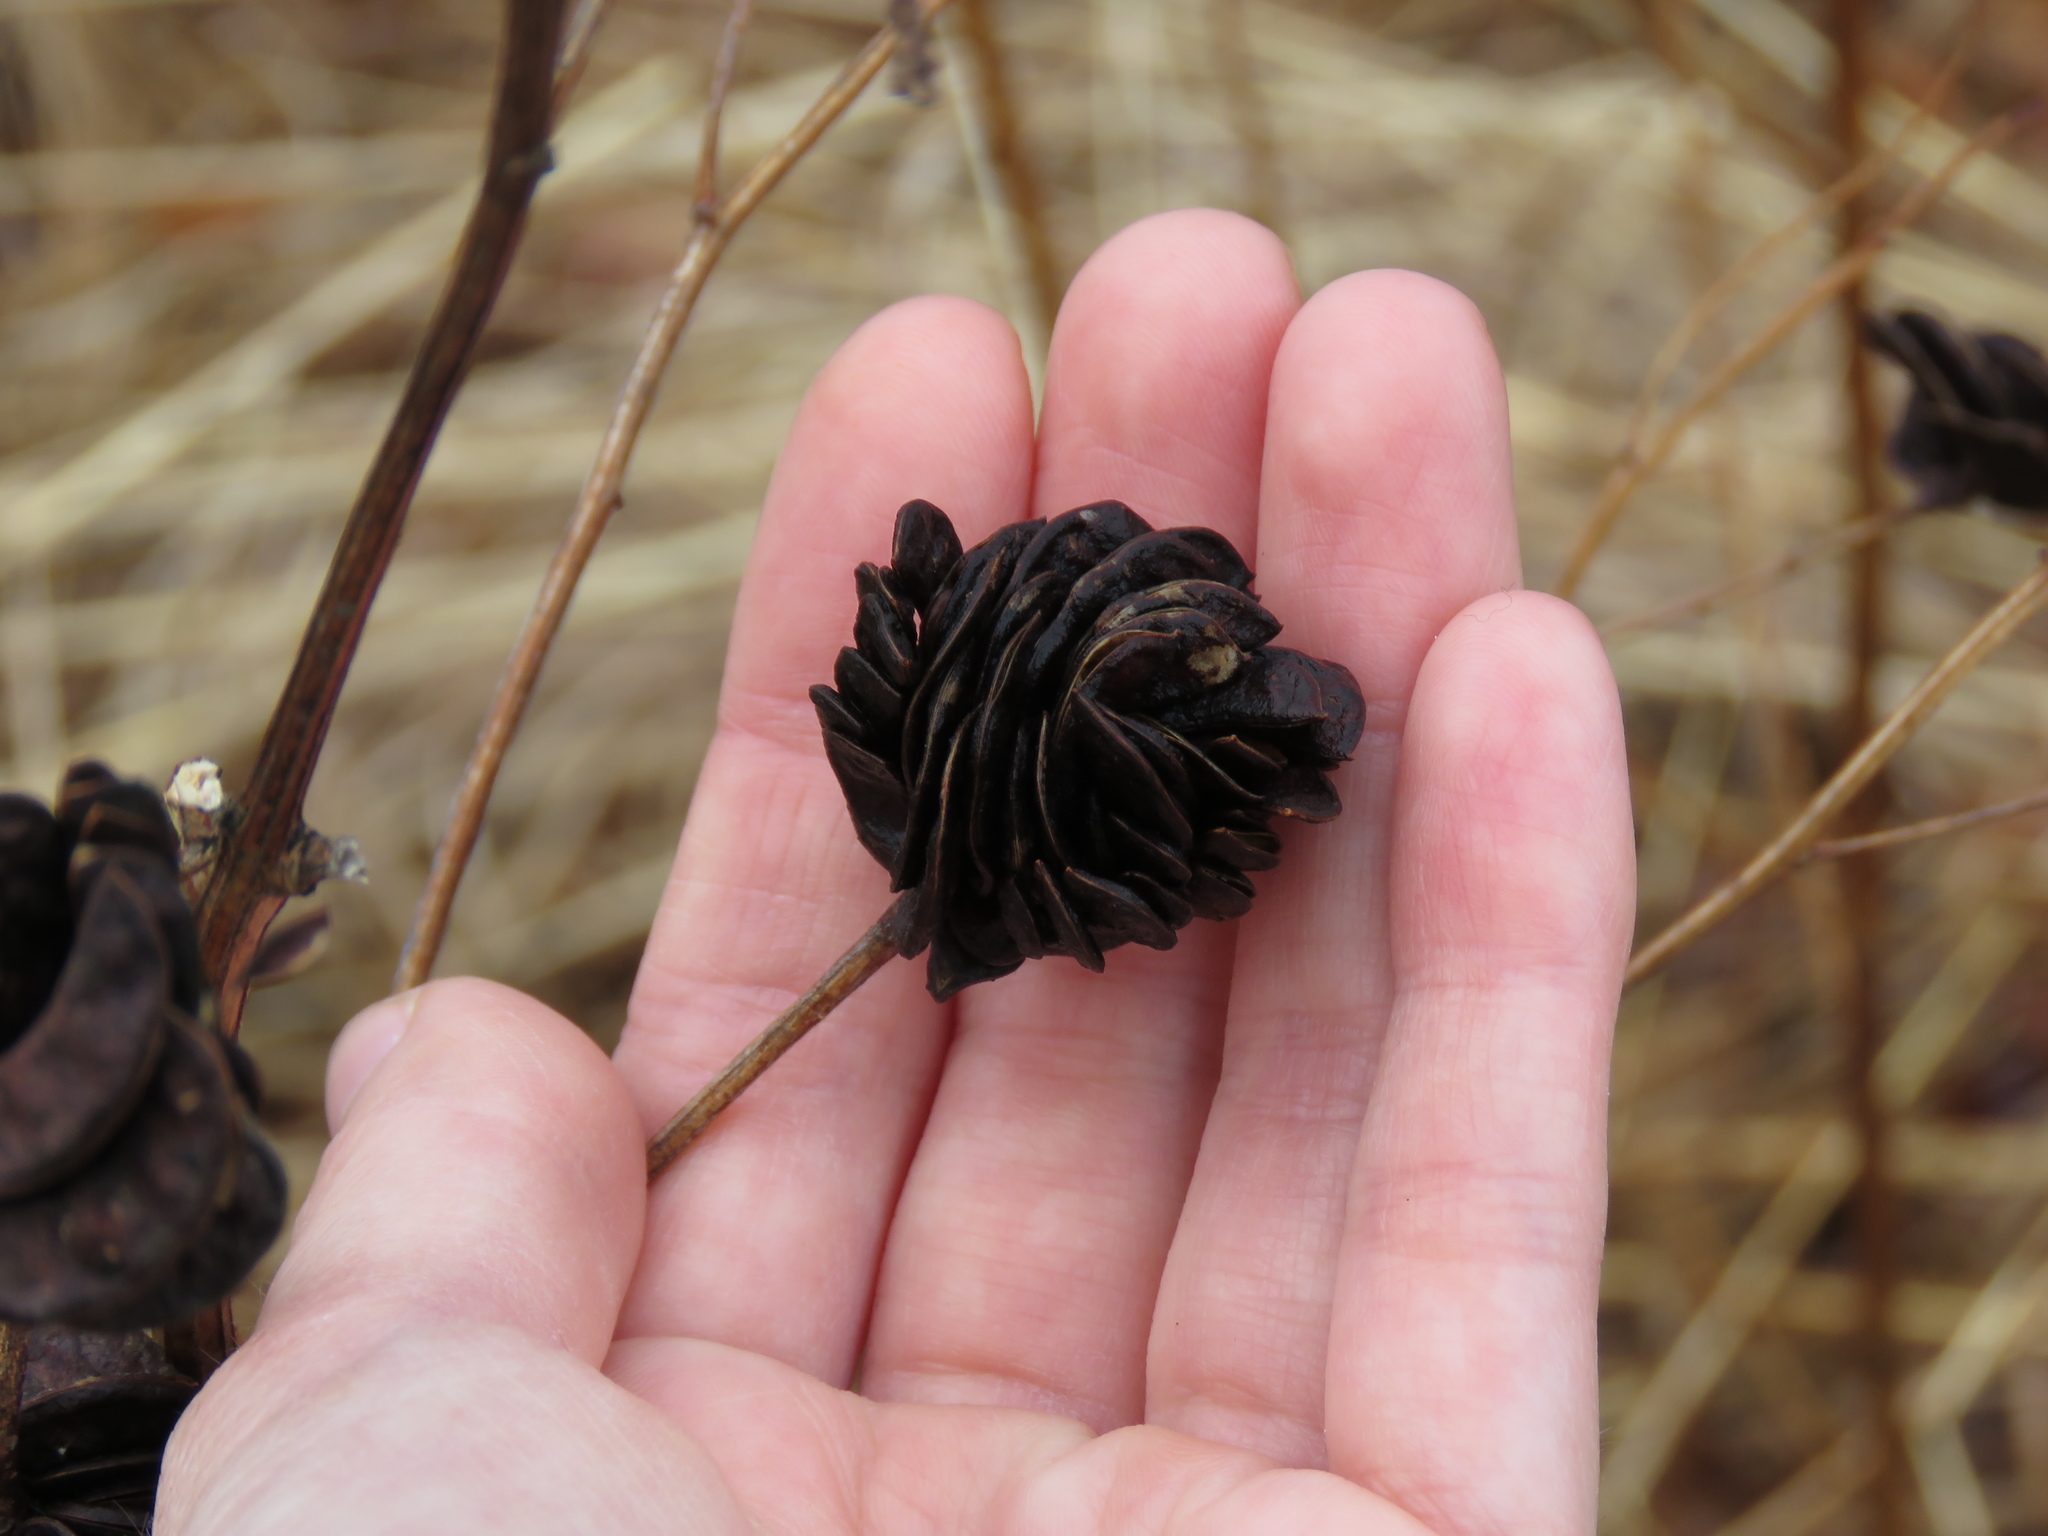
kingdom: Plantae
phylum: Tracheophyta
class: Magnoliopsida
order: Fabales
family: Fabaceae
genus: Desmanthus
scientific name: Desmanthus illinoensis
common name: Illinois bundle-flower
